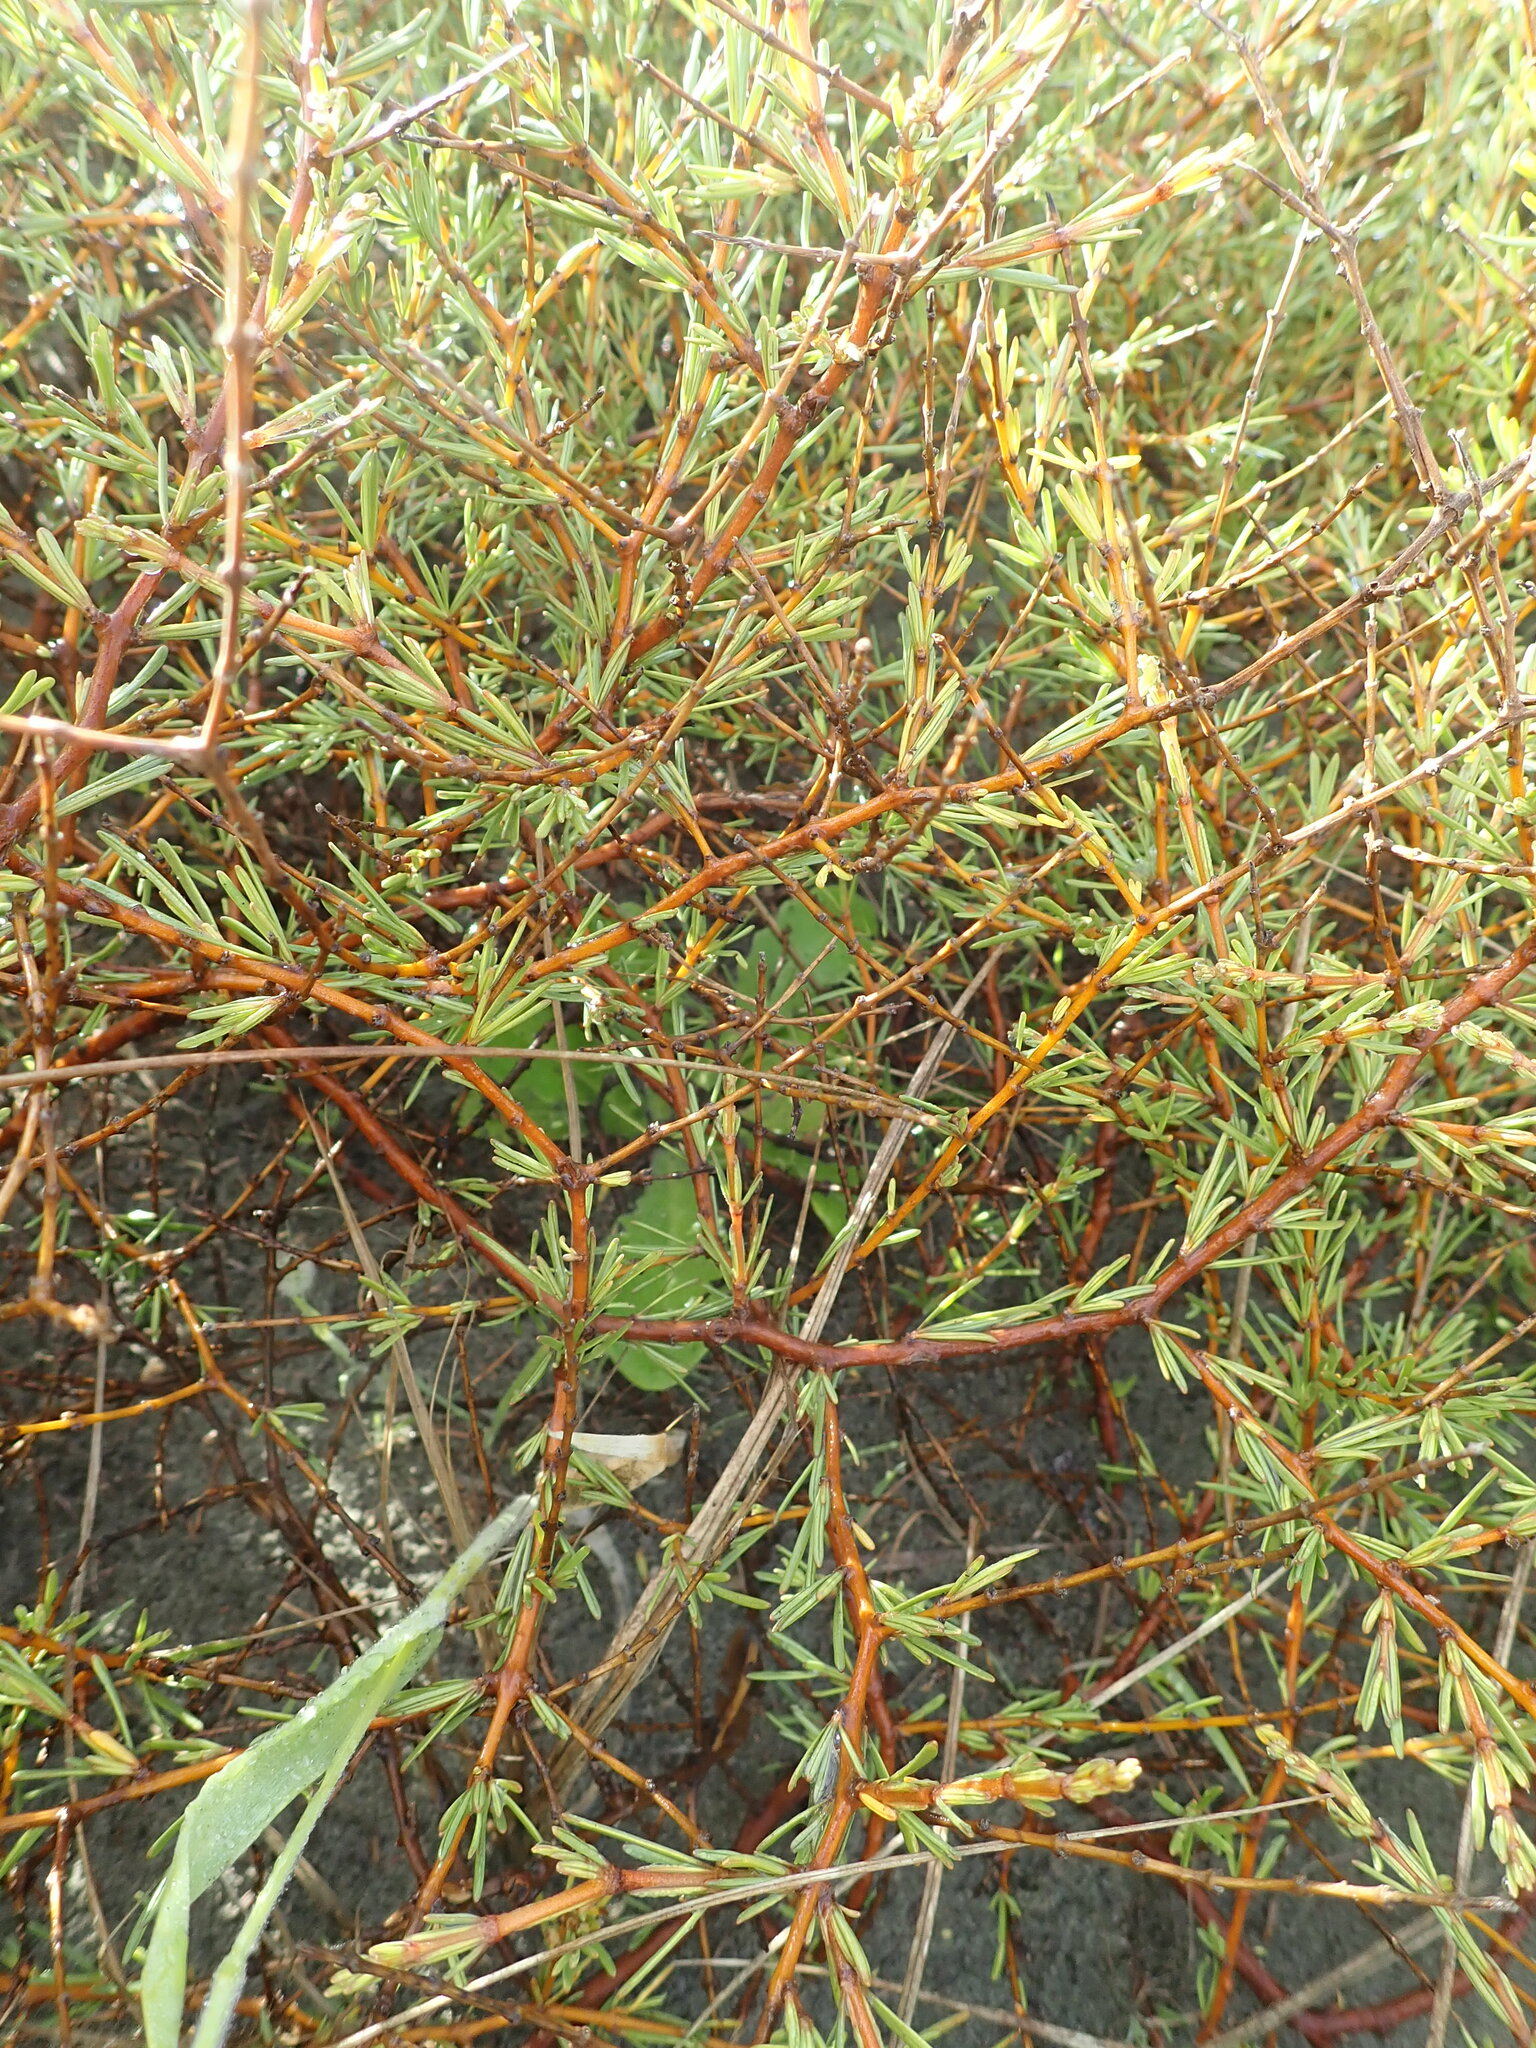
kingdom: Plantae
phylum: Tracheophyta
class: Magnoliopsida
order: Gentianales
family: Rubiaceae
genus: Coprosma
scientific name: Coprosma acerosa
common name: Sand coprosma
